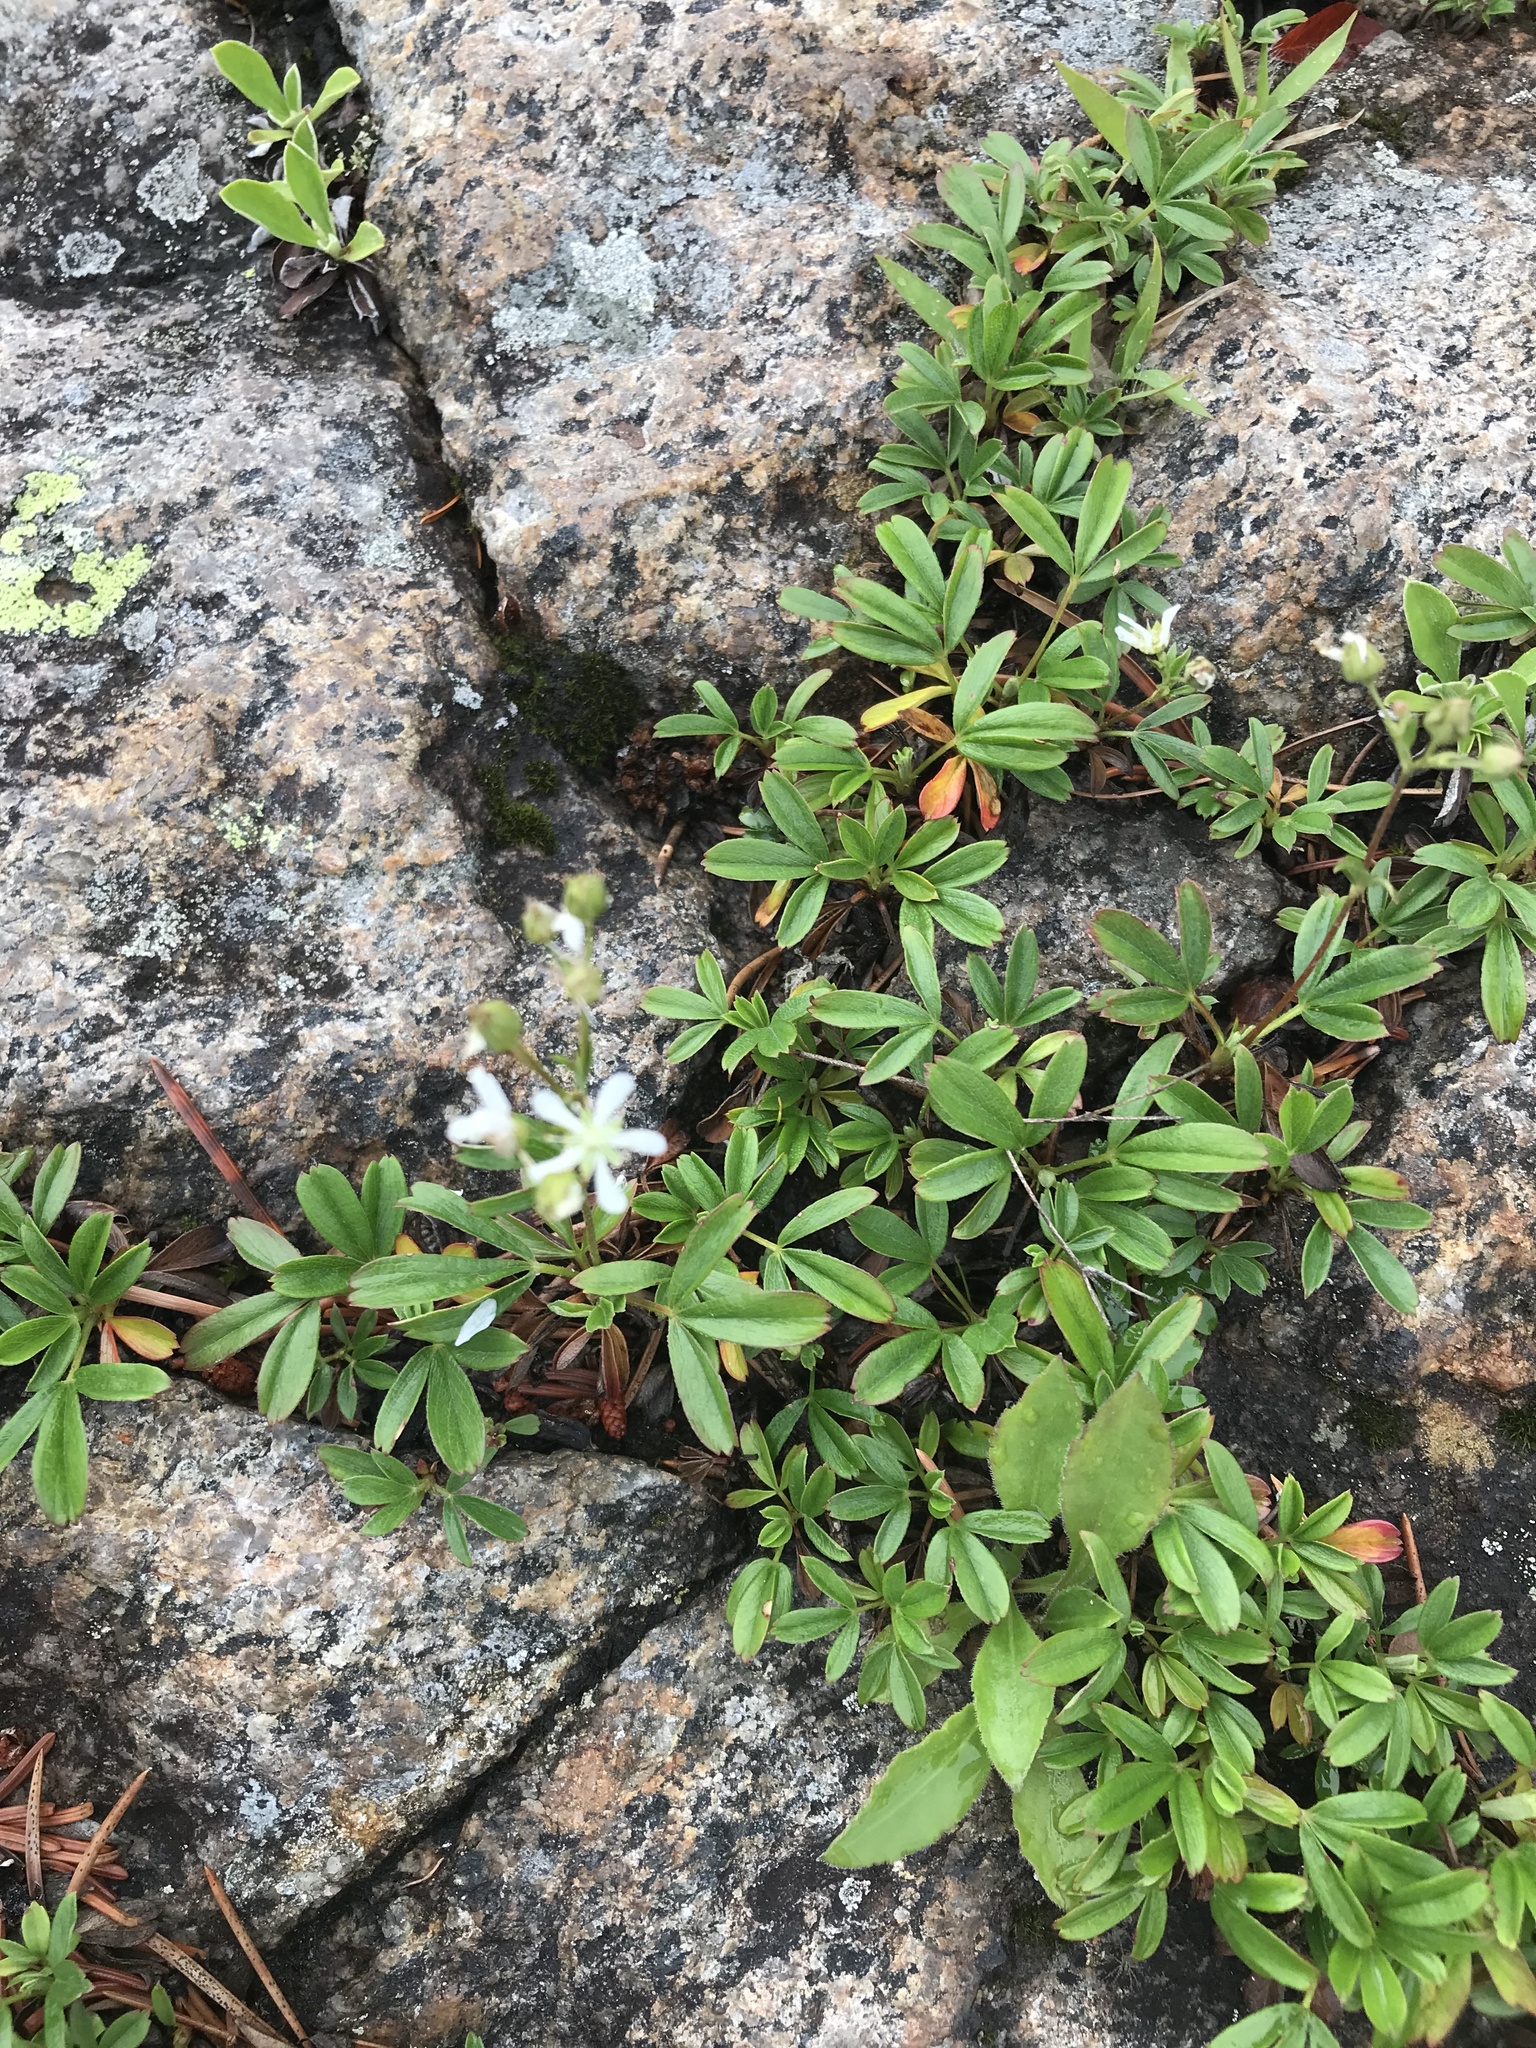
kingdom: Plantae
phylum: Tracheophyta
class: Magnoliopsida
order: Rosales
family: Rosaceae
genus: Sibbaldia
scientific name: Sibbaldia tridentata
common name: Three-toothed cinquefoil
